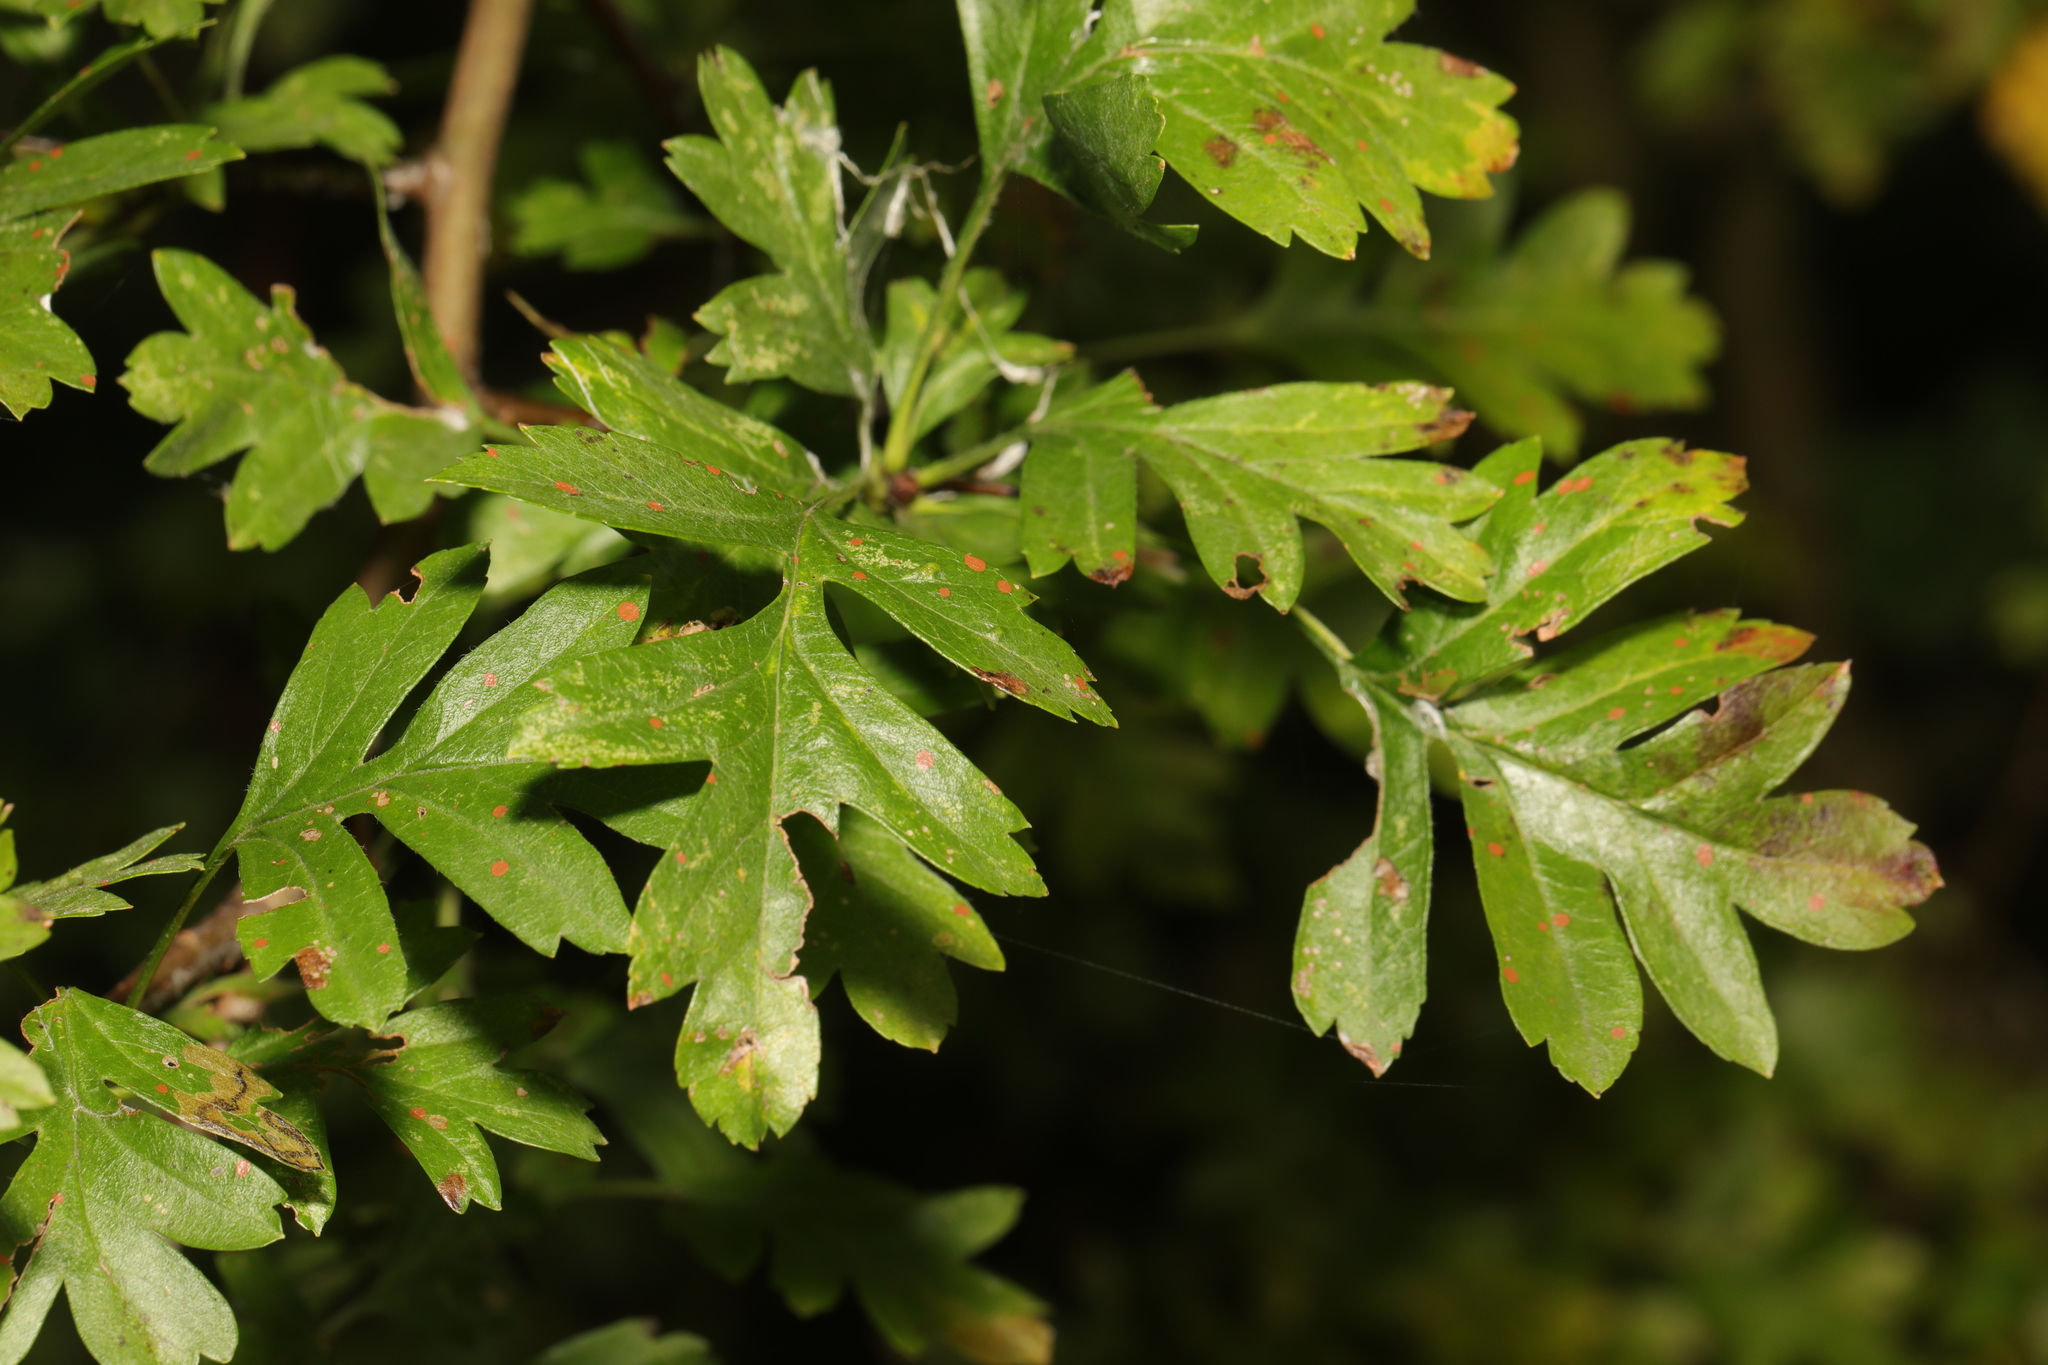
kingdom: Plantae
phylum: Tracheophyta
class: Magnoliopsida
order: Rosales
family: Rosaceae
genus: Crataegus
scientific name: Crataegus monogyna
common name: Hawthorn
